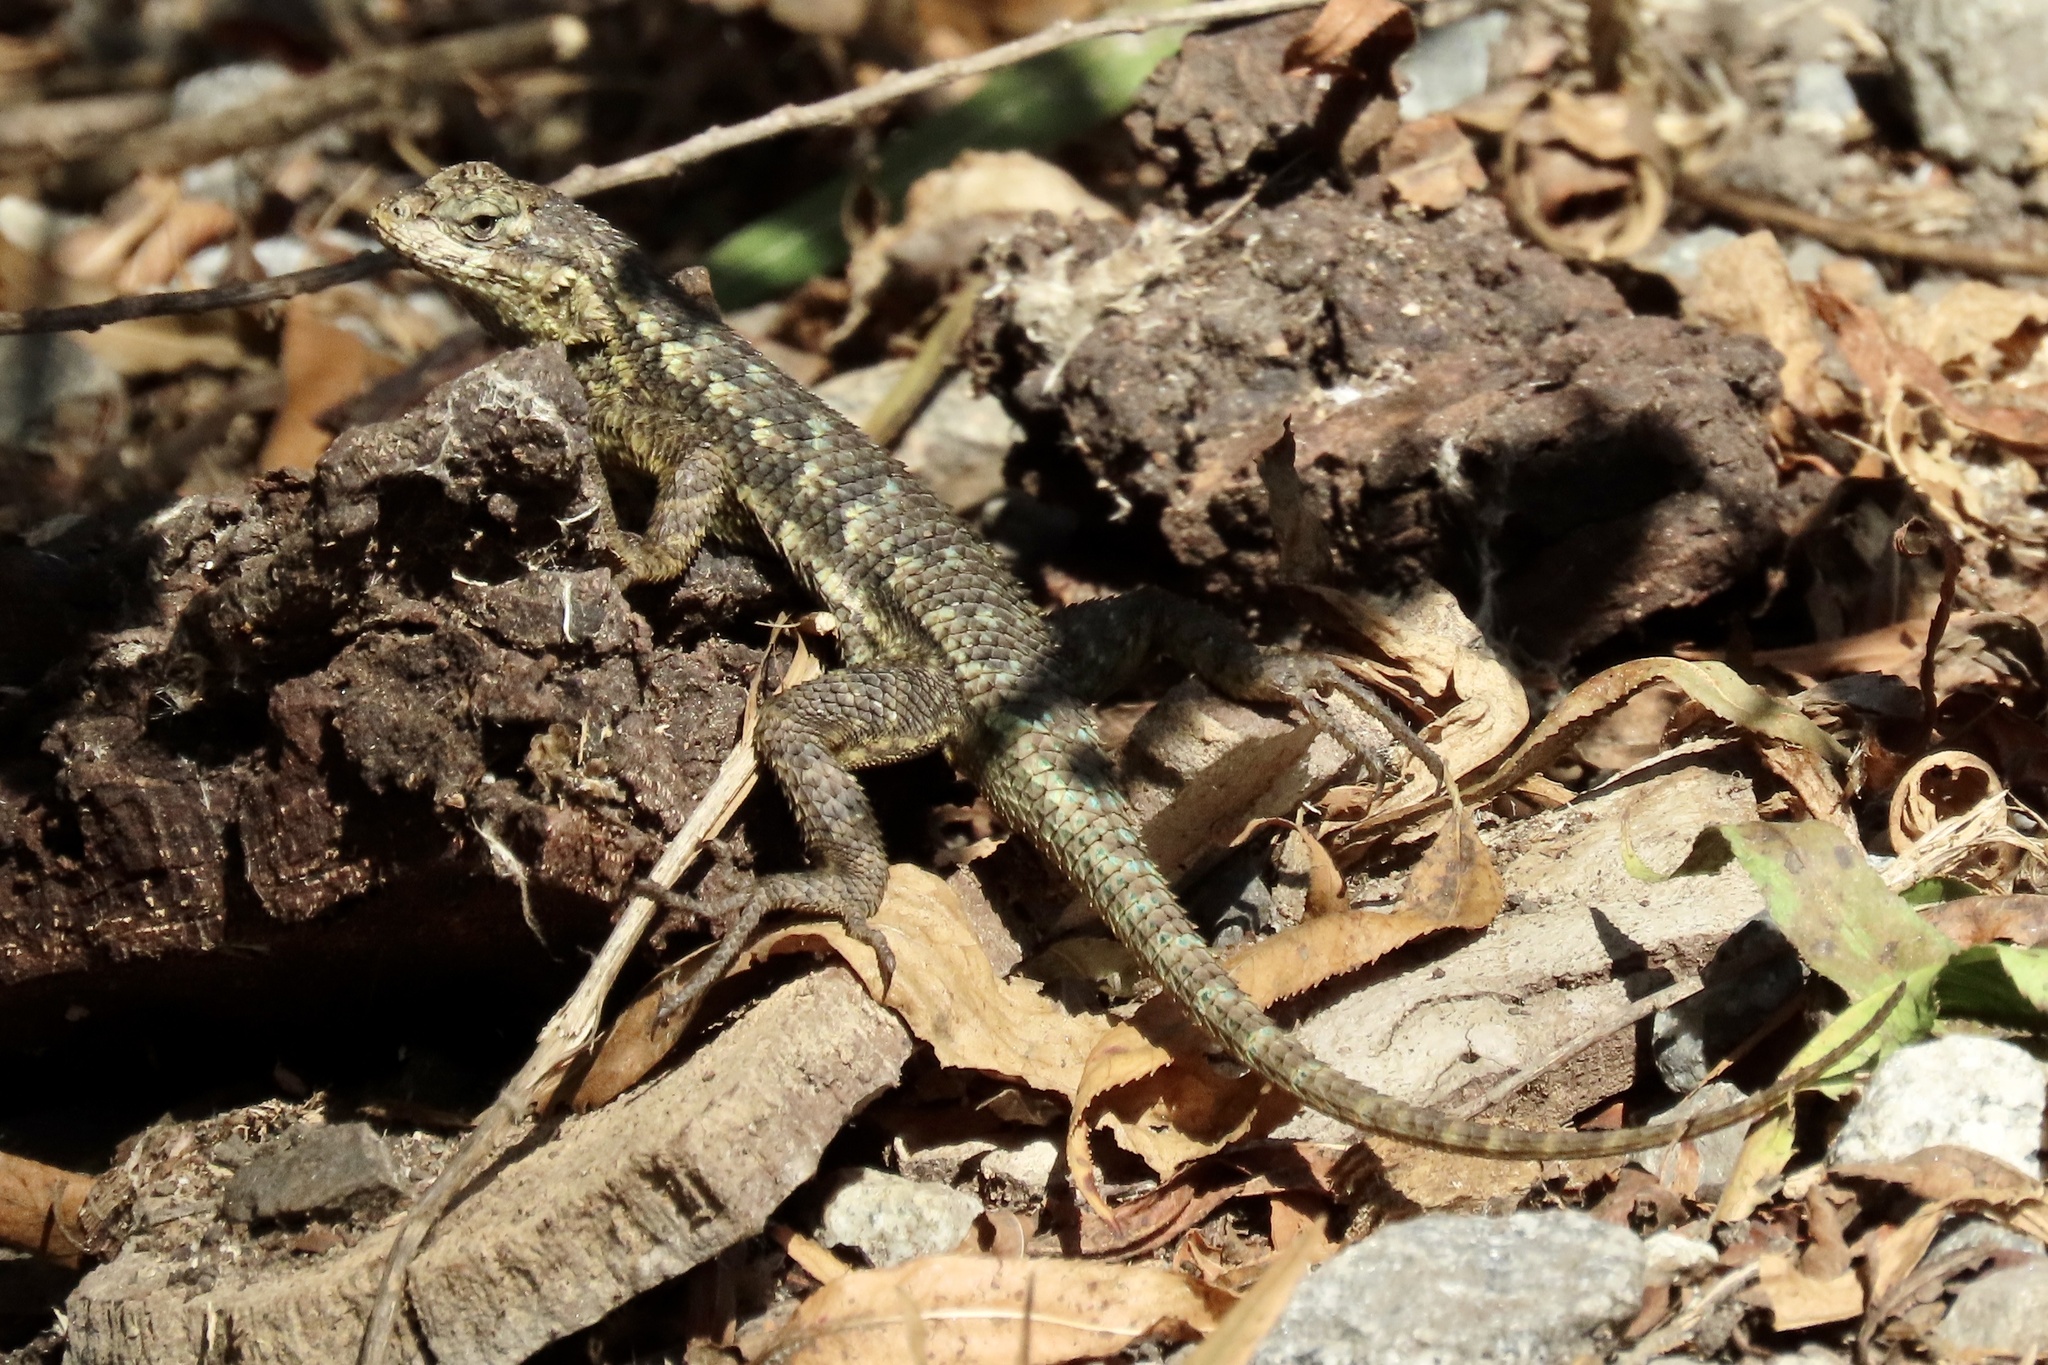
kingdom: Animalia
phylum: Chordata
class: Squamata
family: Phrynosomatidae
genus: Sceloporus
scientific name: Sceloporus occidentalis
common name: Western fence lizard
